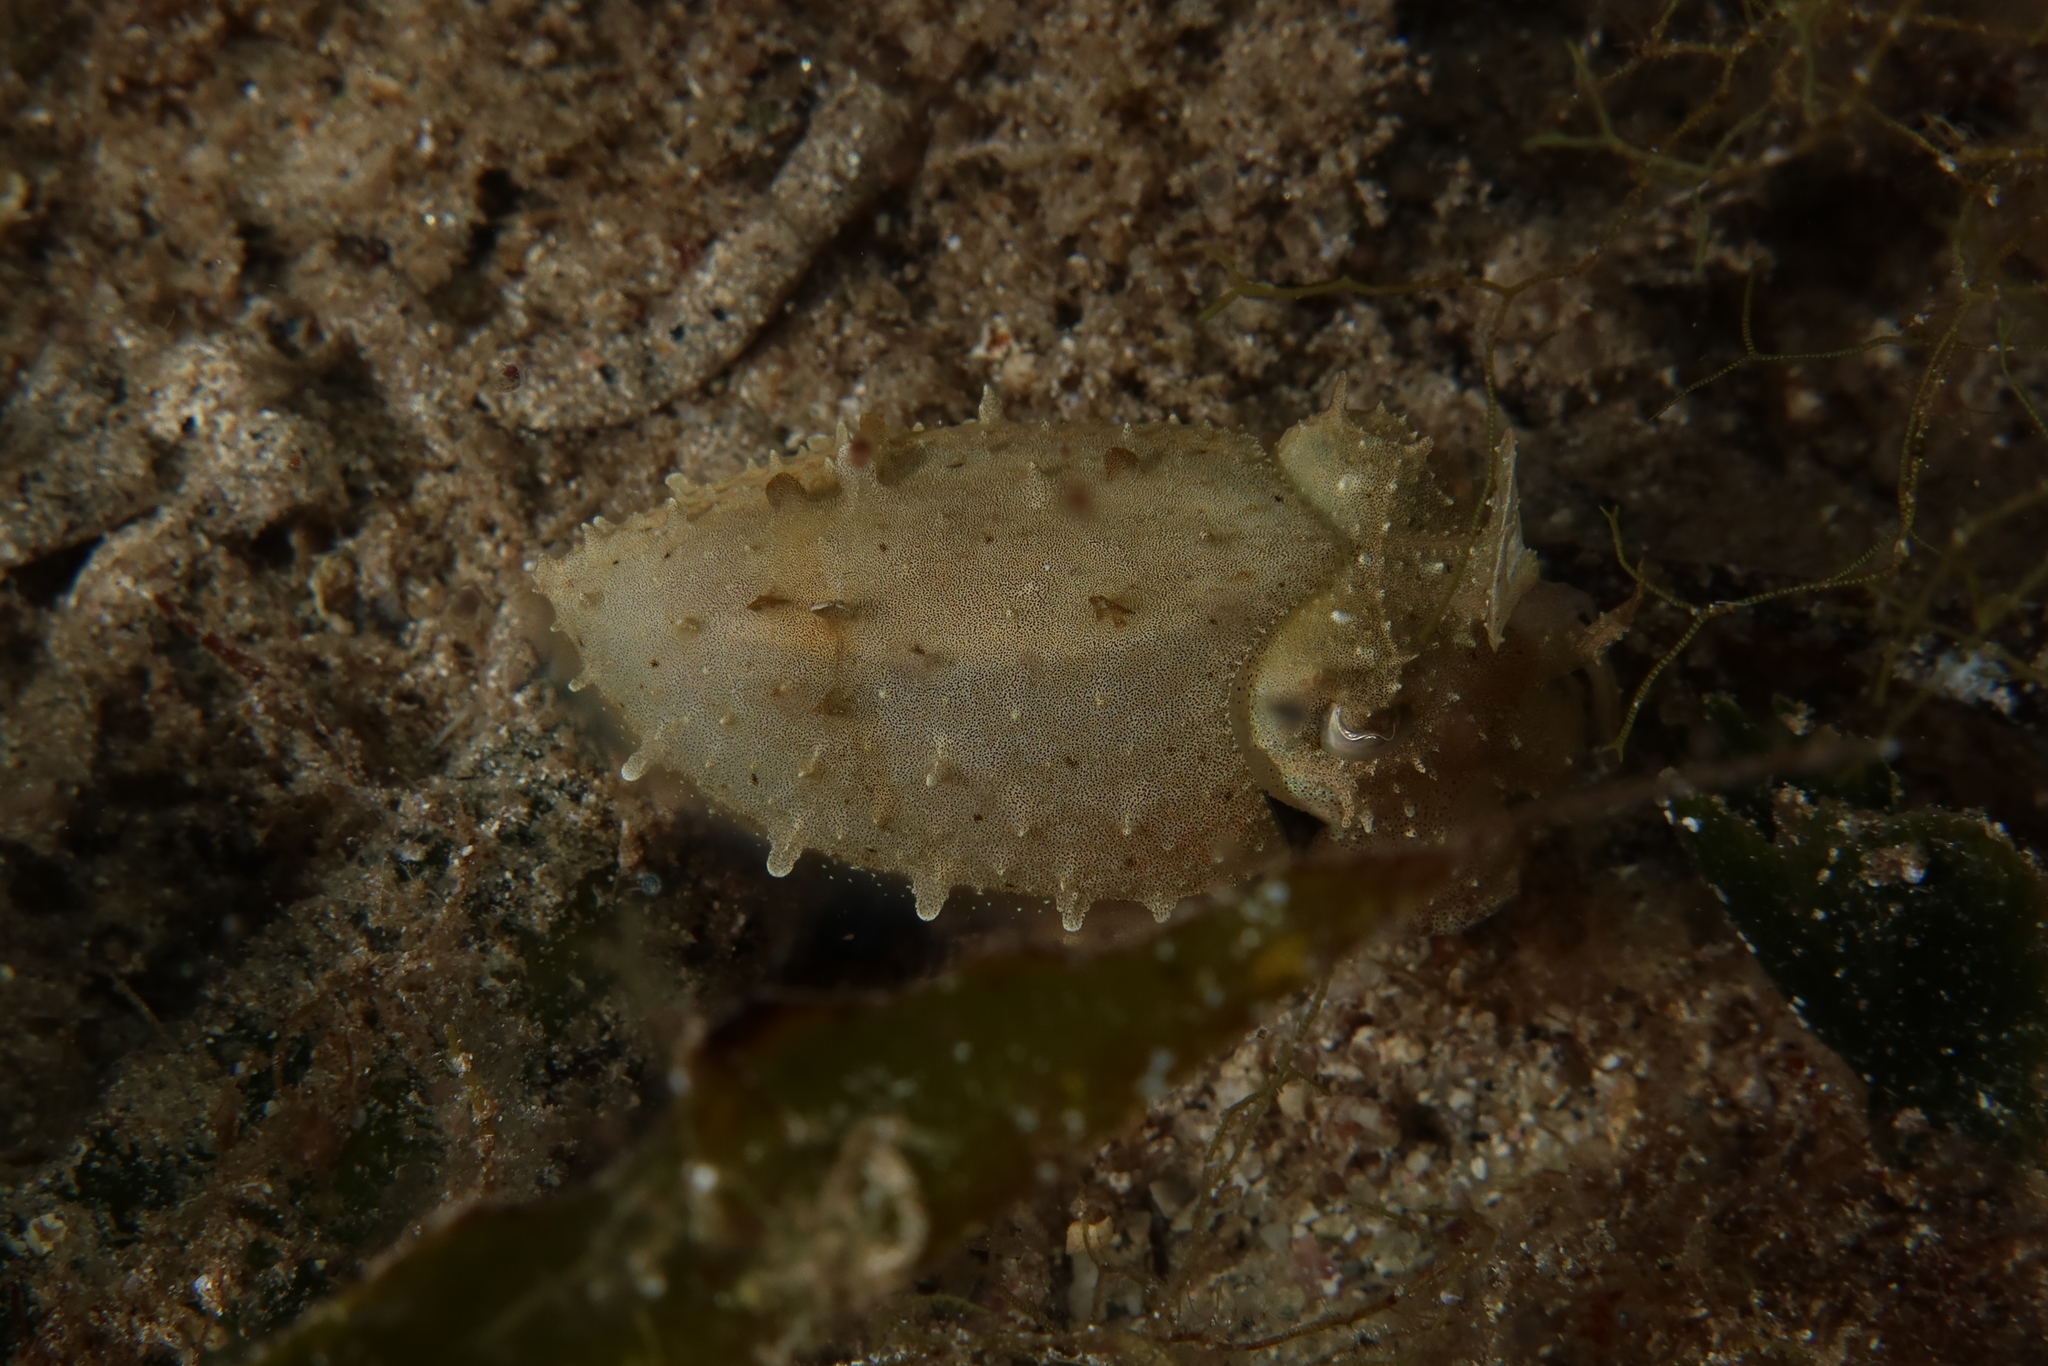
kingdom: Animalia
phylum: Mollusca
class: Cephalopoda
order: Sepiida
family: Sepiidae
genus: Sepia
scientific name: Sepia officinalis
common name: Common cuttlefish
